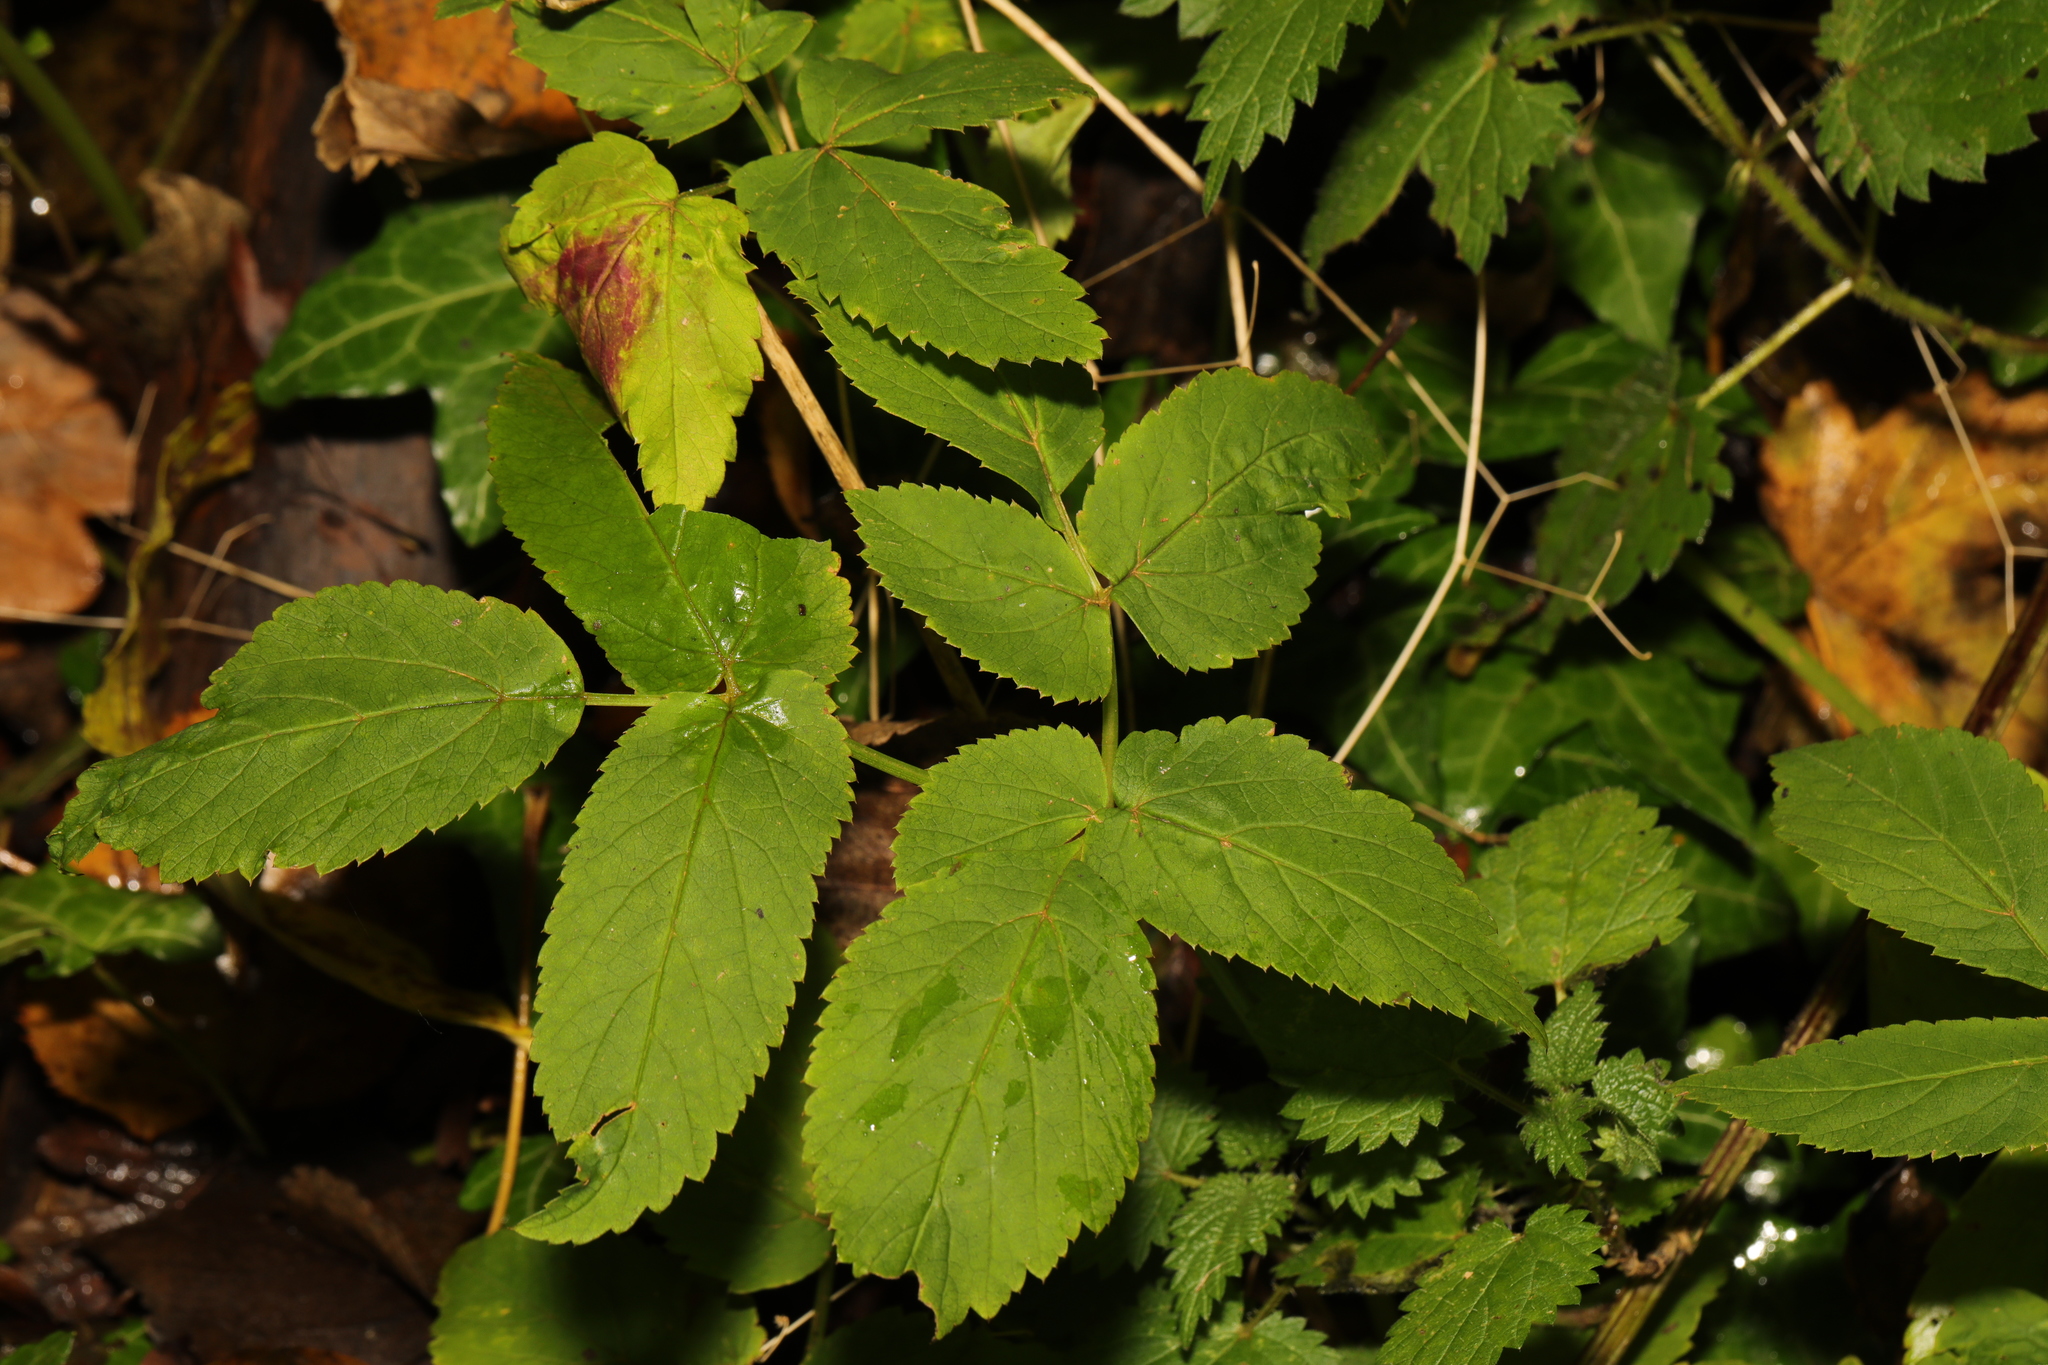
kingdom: Plantae
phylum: Tracheophyta
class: Magnoliopsida
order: Apiales
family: Apiaceae
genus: Aegopodium
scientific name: Aegopodium podagraria
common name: Ground-elder
